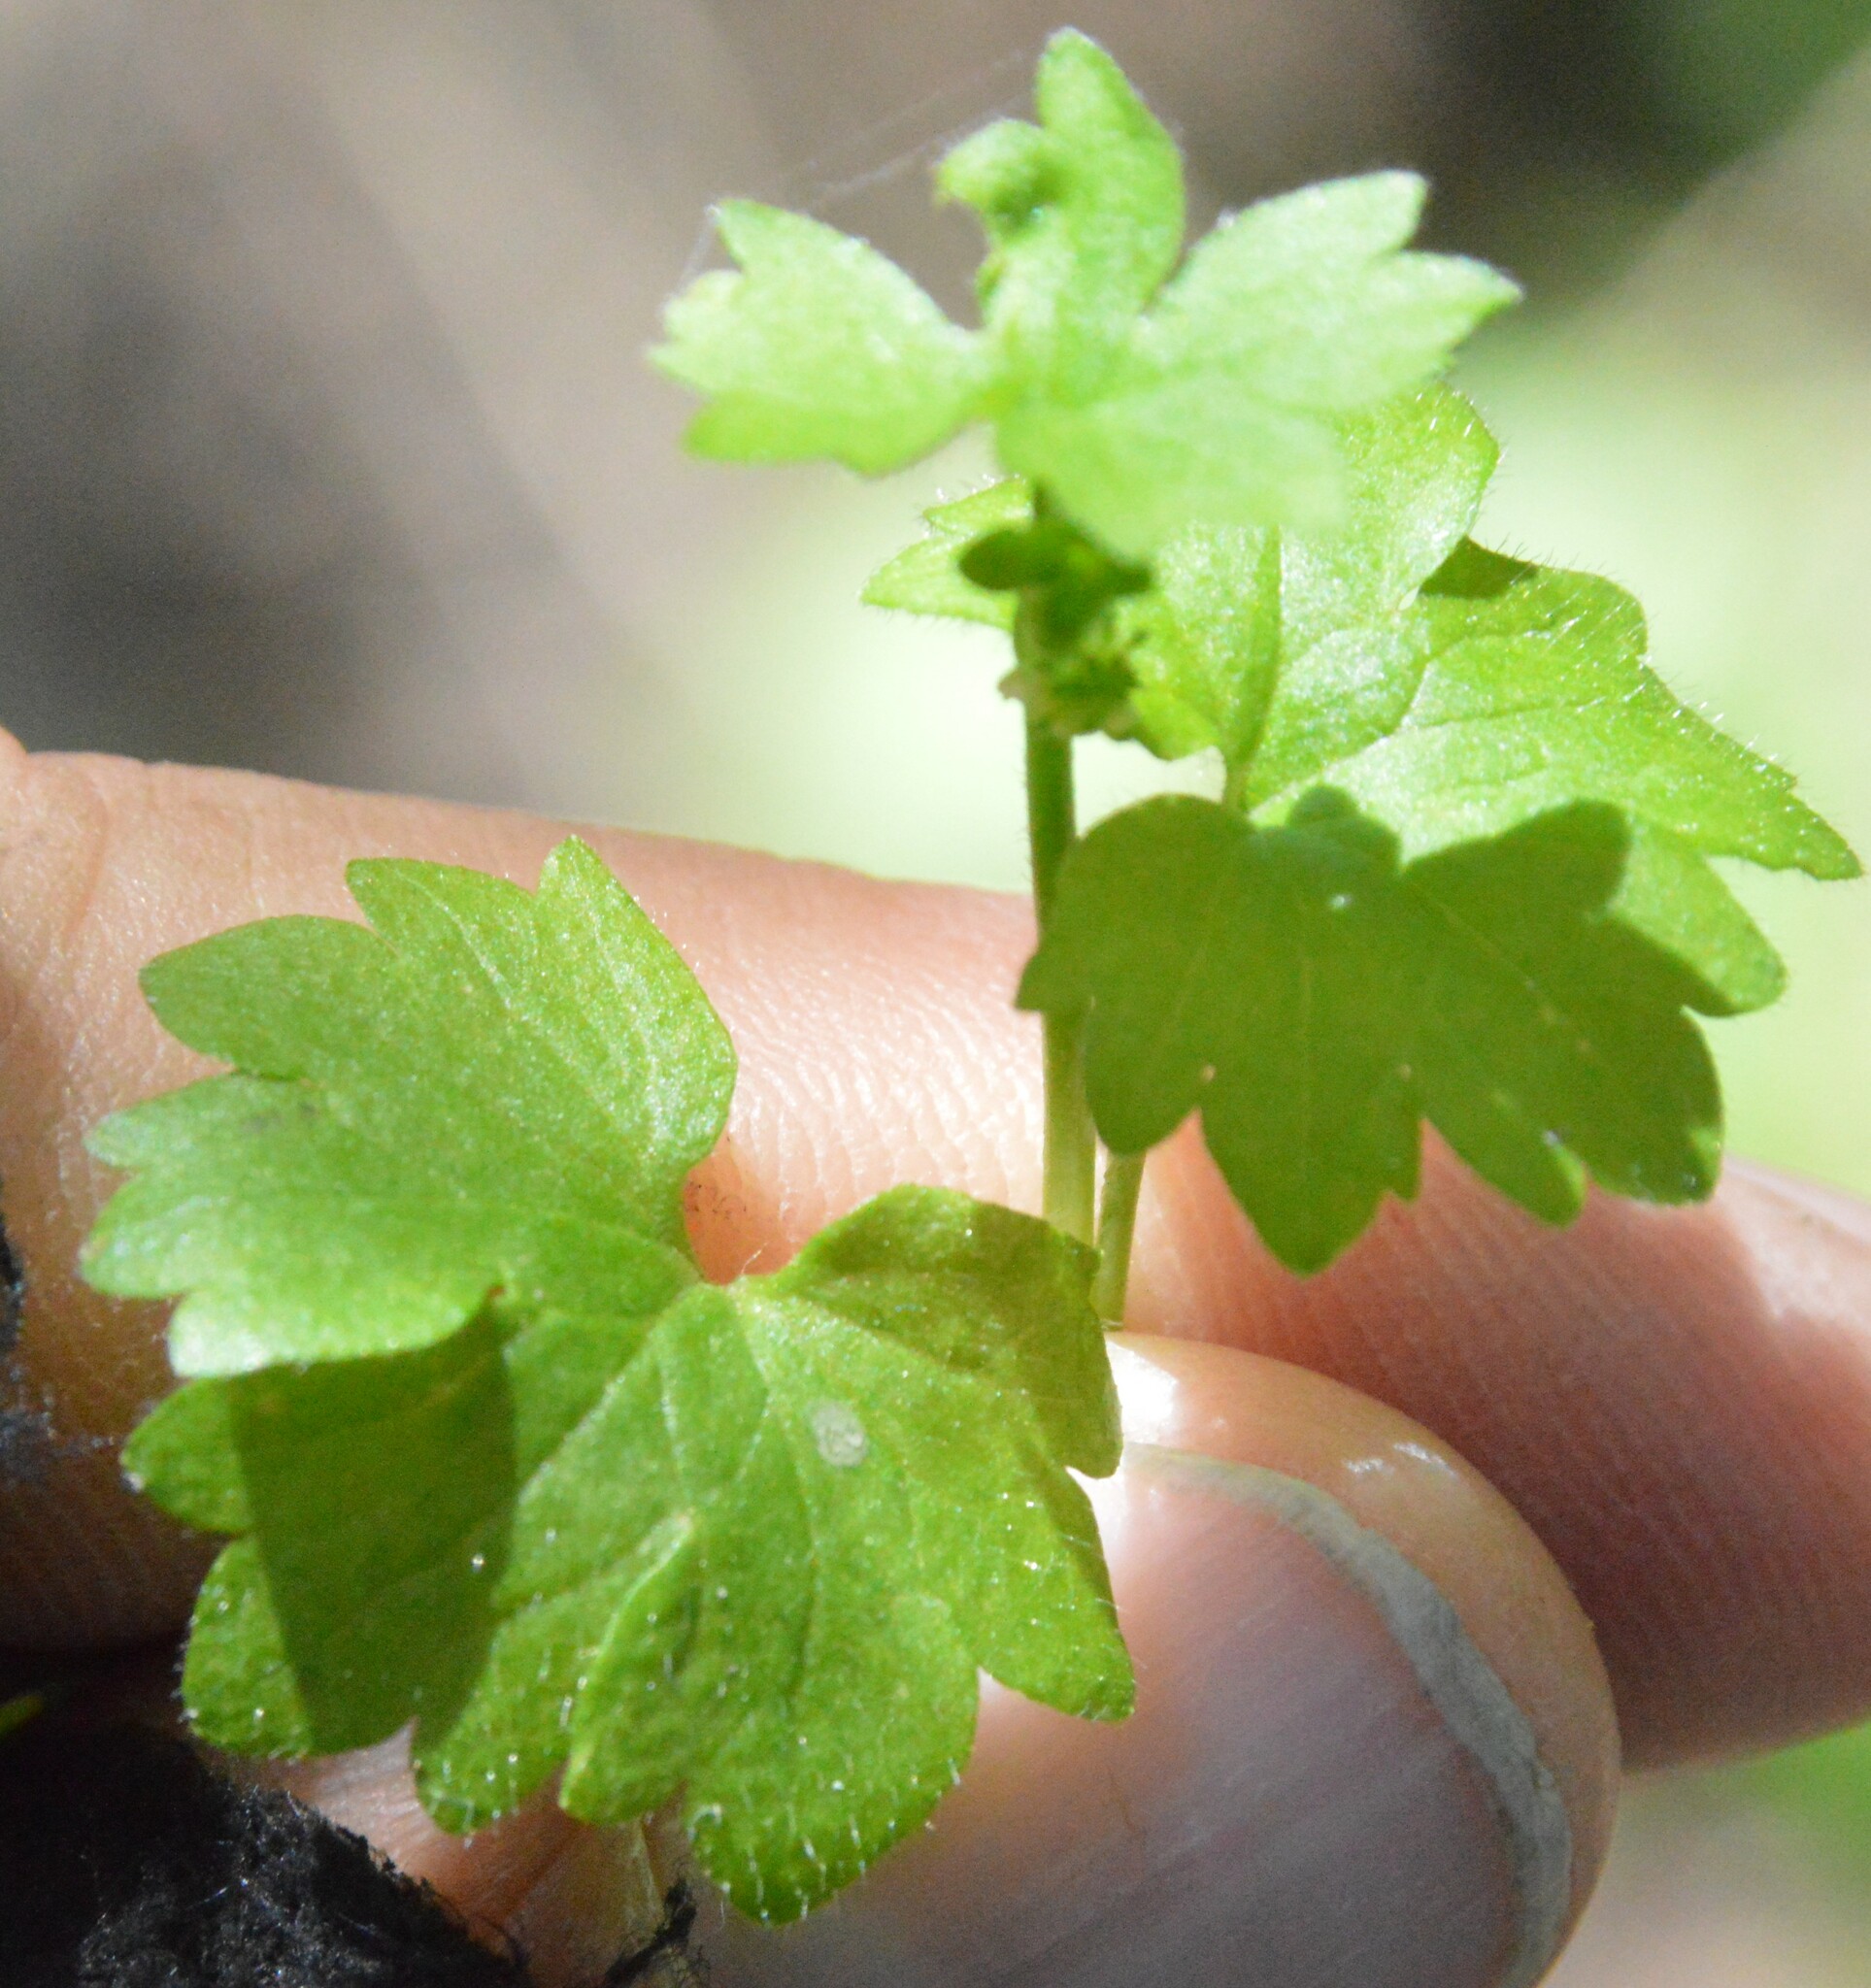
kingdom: Plantae
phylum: Tracheophyta
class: Magnoliopsida
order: Ranunculales
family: Ranunculaceae
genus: Ranunculus
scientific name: Ranunculus platensis
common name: Prairie buttercup
